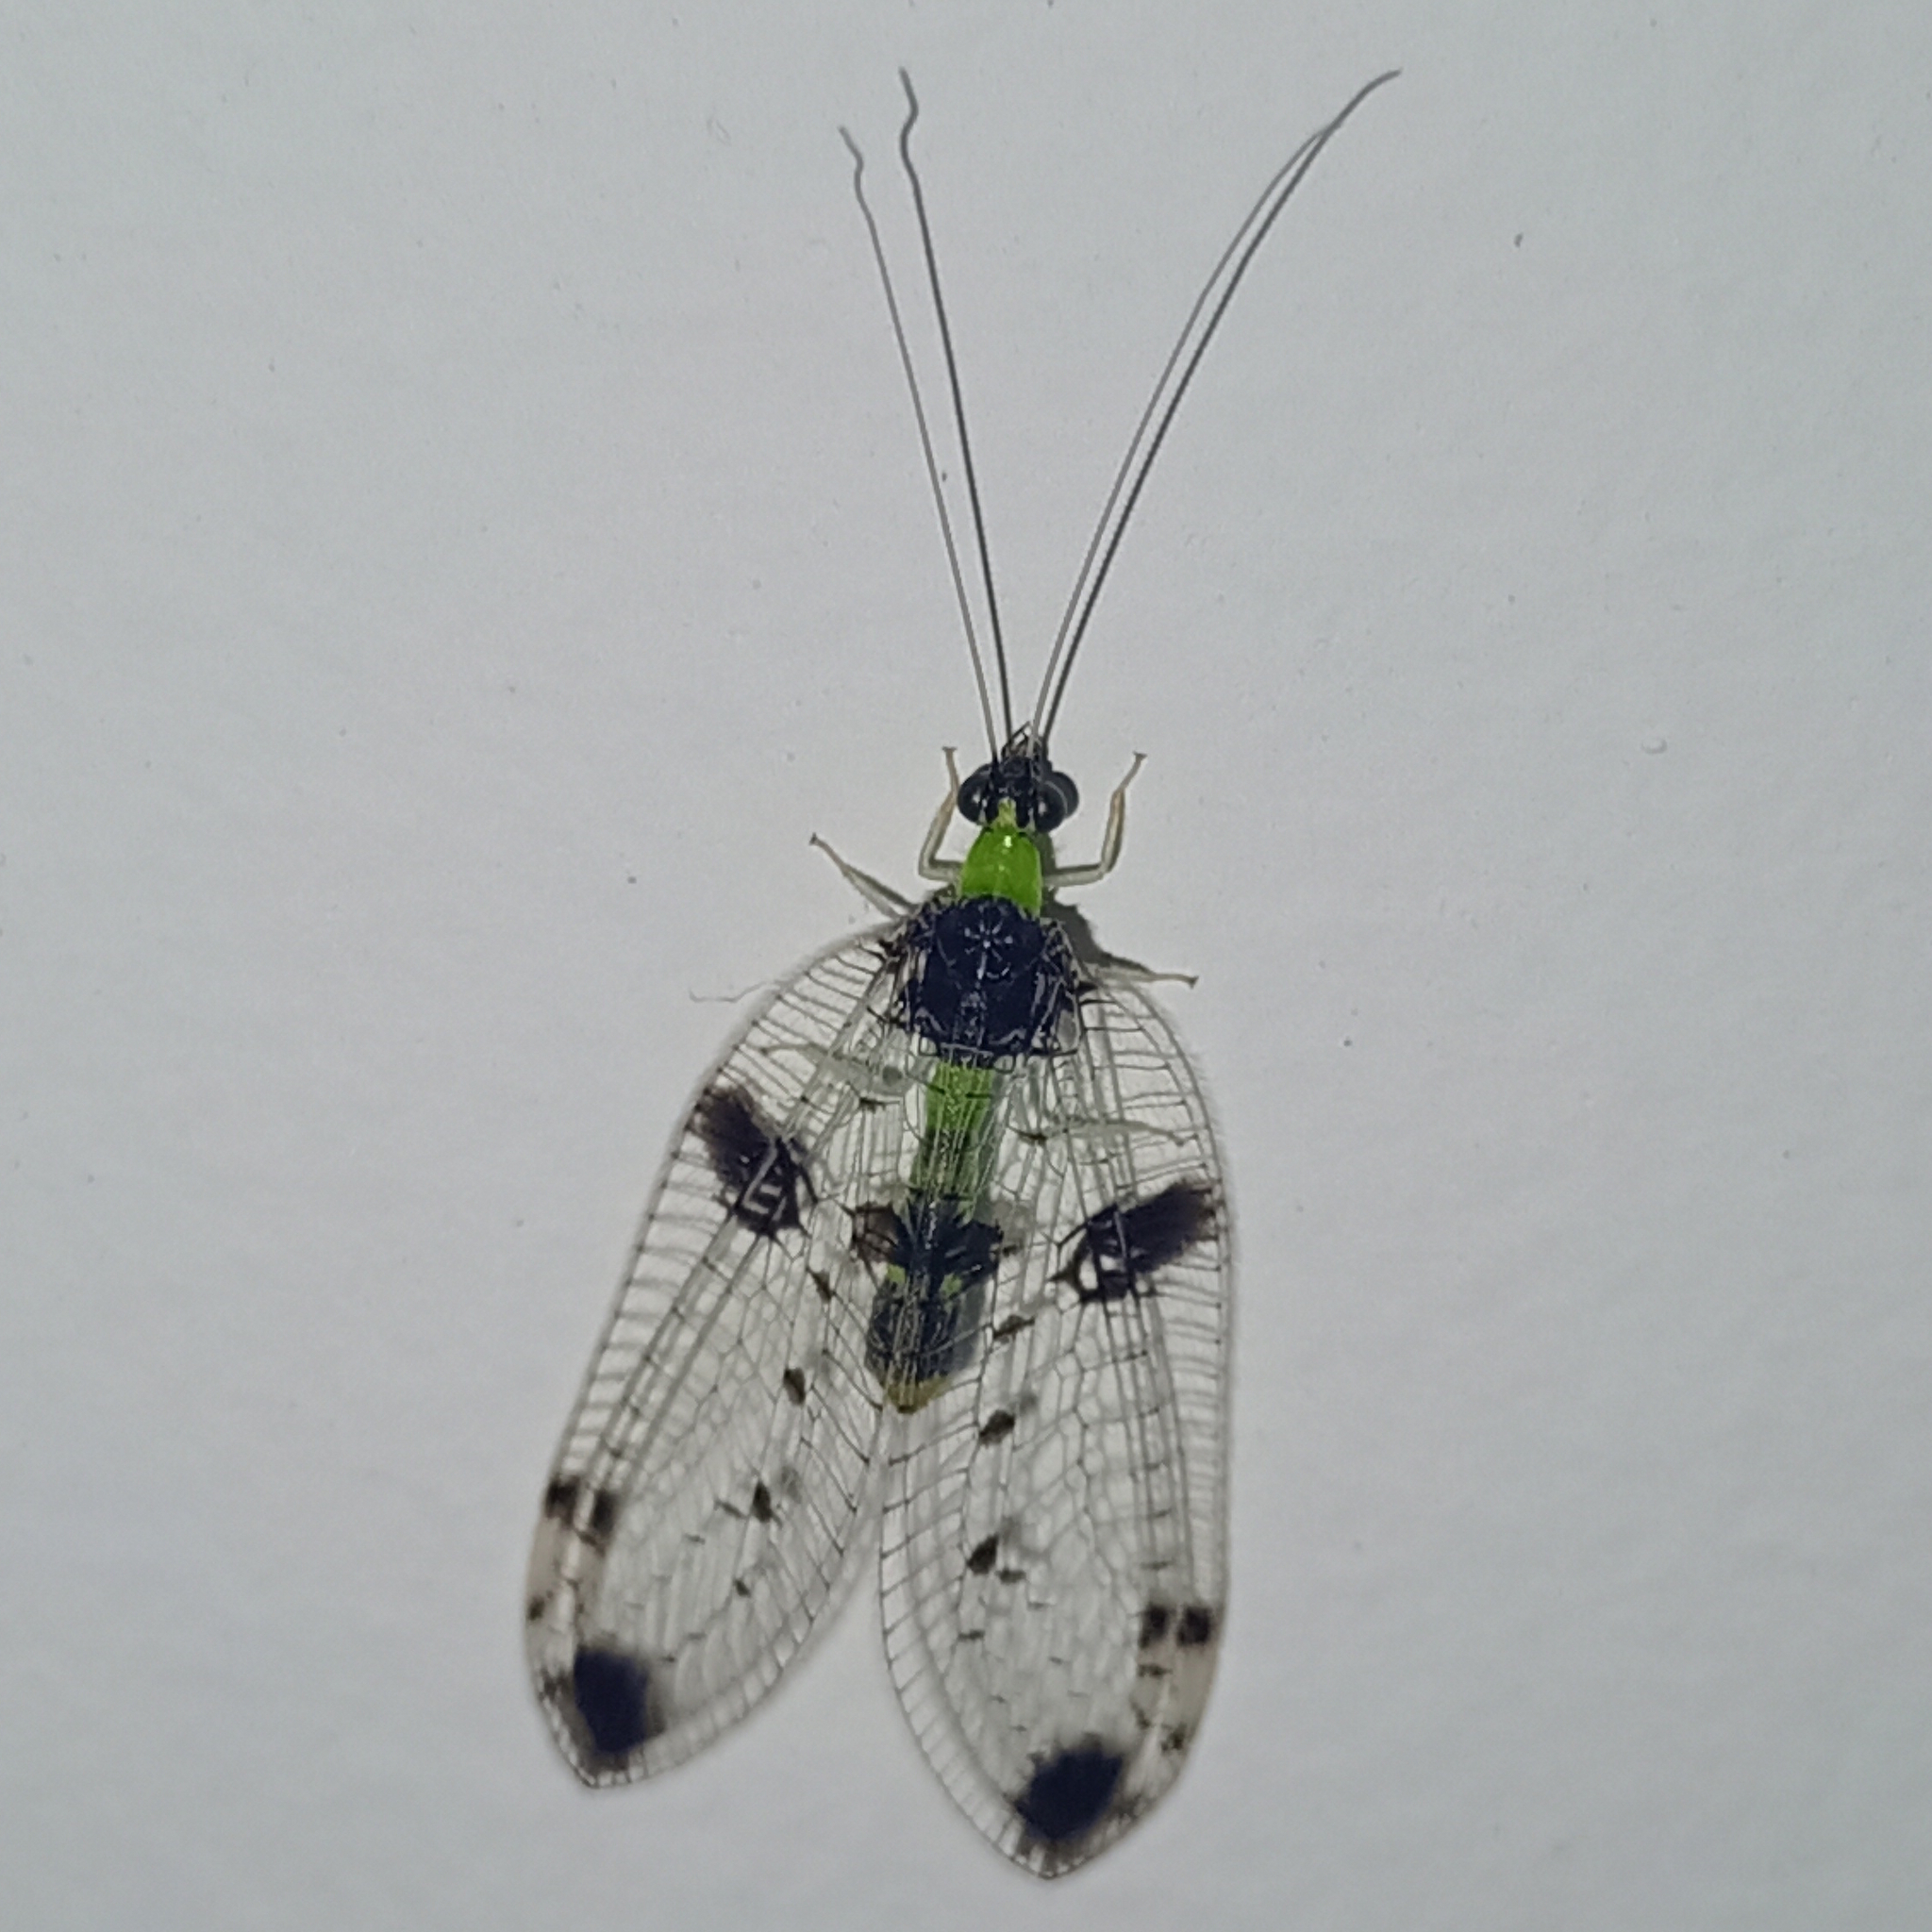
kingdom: Animalia
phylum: Arthropoda
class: Insecta
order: Neuroptera
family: Chrysopidae
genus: Vieira
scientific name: Vieira elegans
